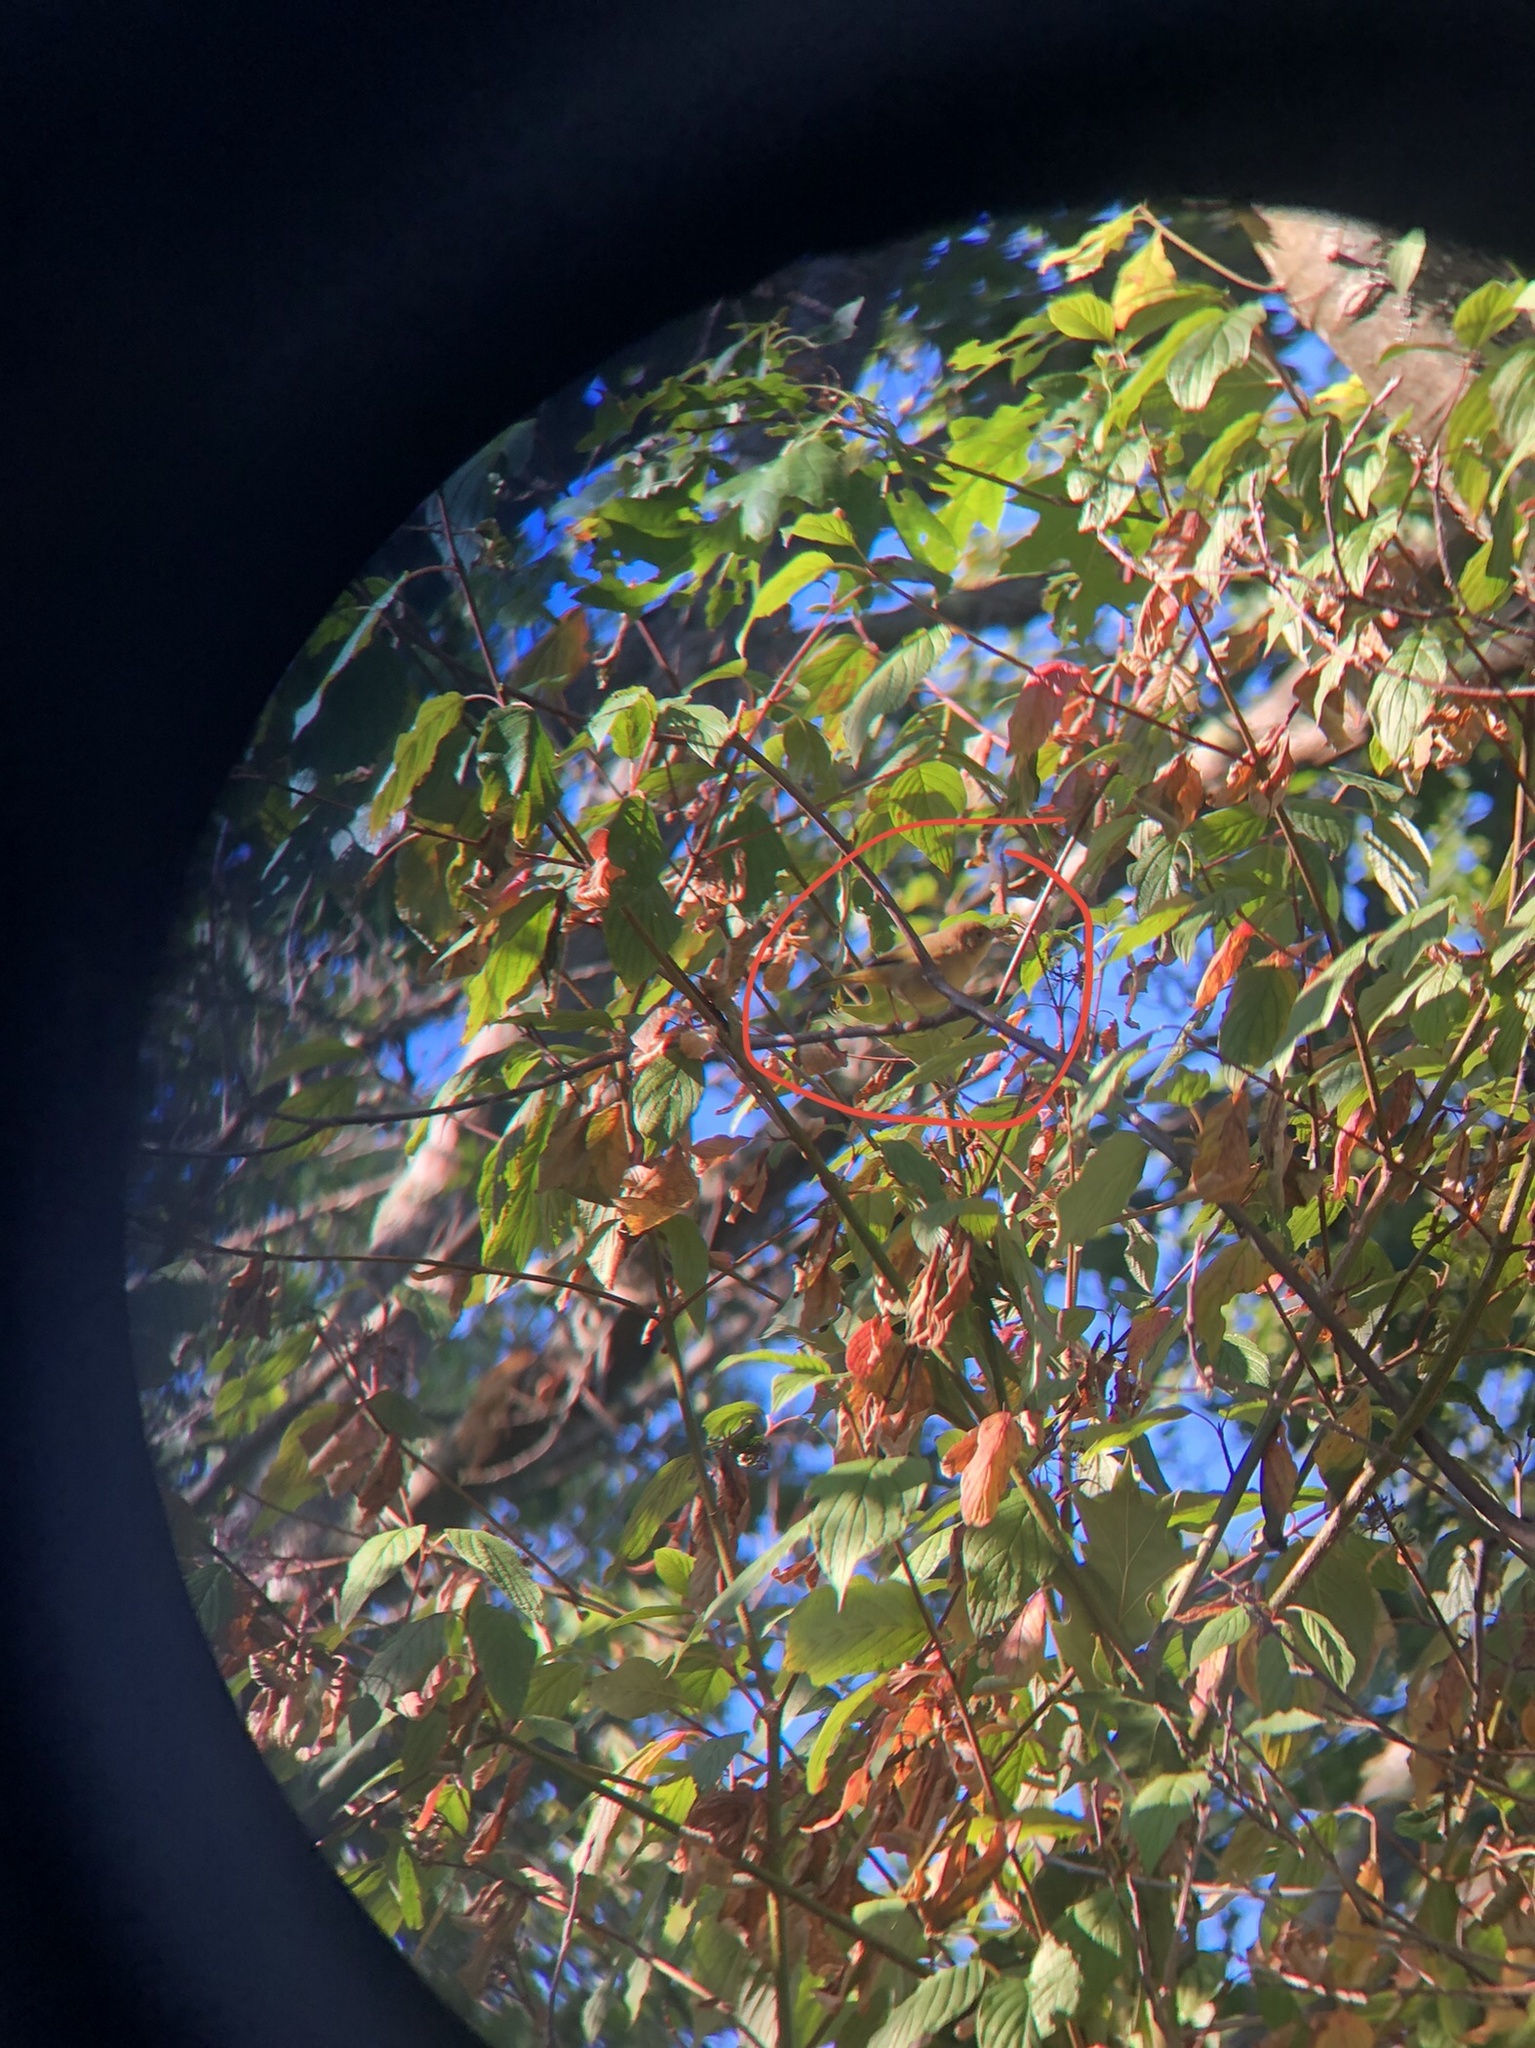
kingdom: Animalia
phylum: Chordata
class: Aves
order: Passeriformes
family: Parulidae
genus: Geothlypis
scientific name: Geothlypis trichas
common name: Common yellowthroat
